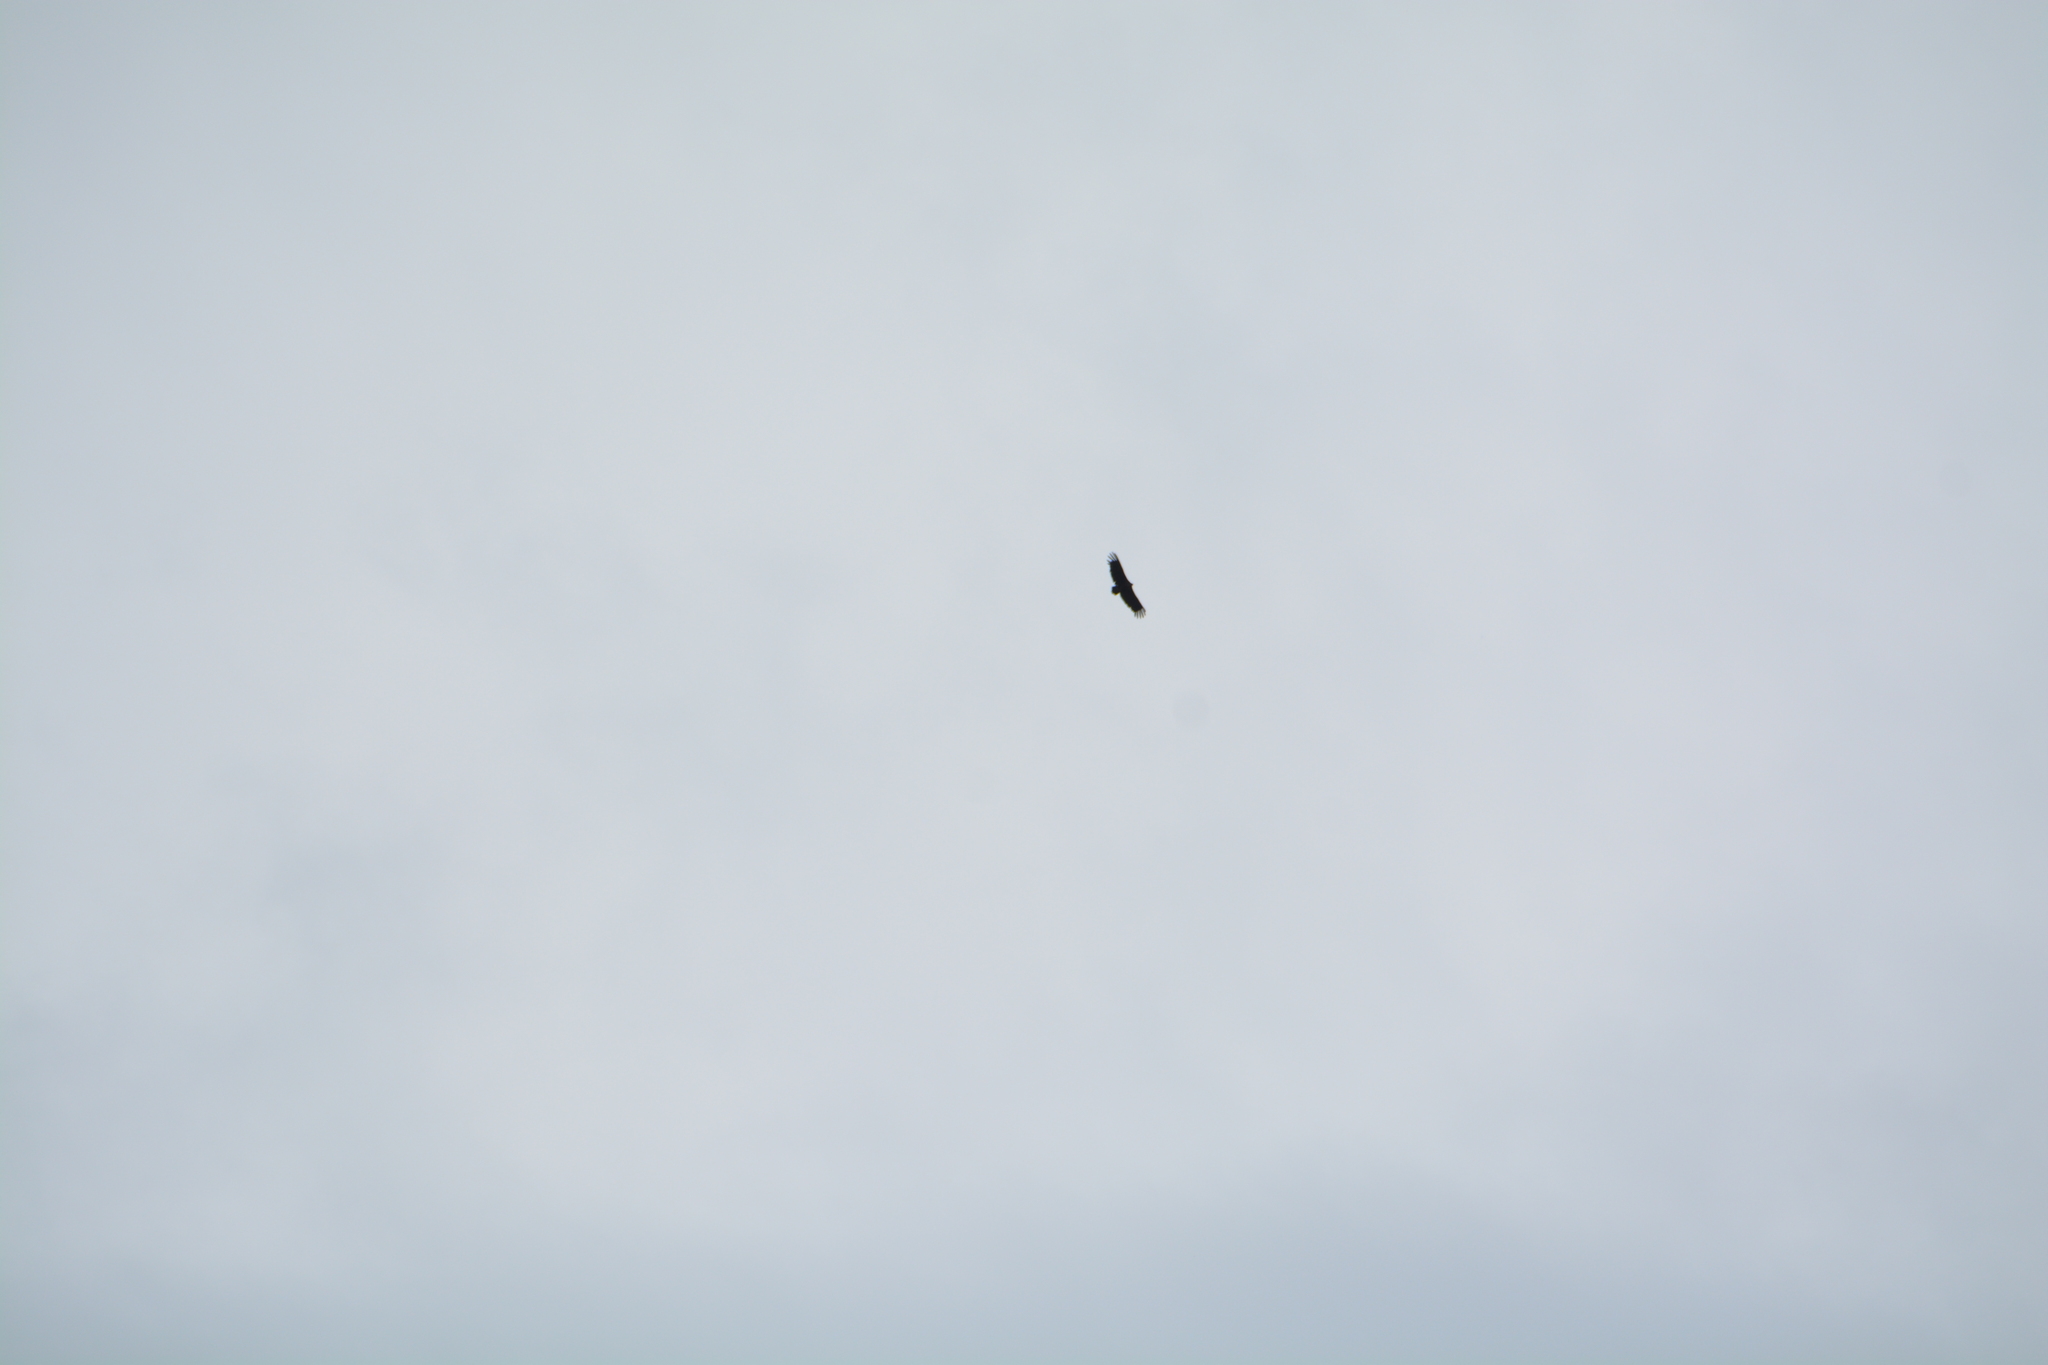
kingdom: Animalia
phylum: Chordata
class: Aves
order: Accipitriformes
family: Accipitridae
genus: Aegypius
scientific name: Aegypius monachus
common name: Cinereous vulture
